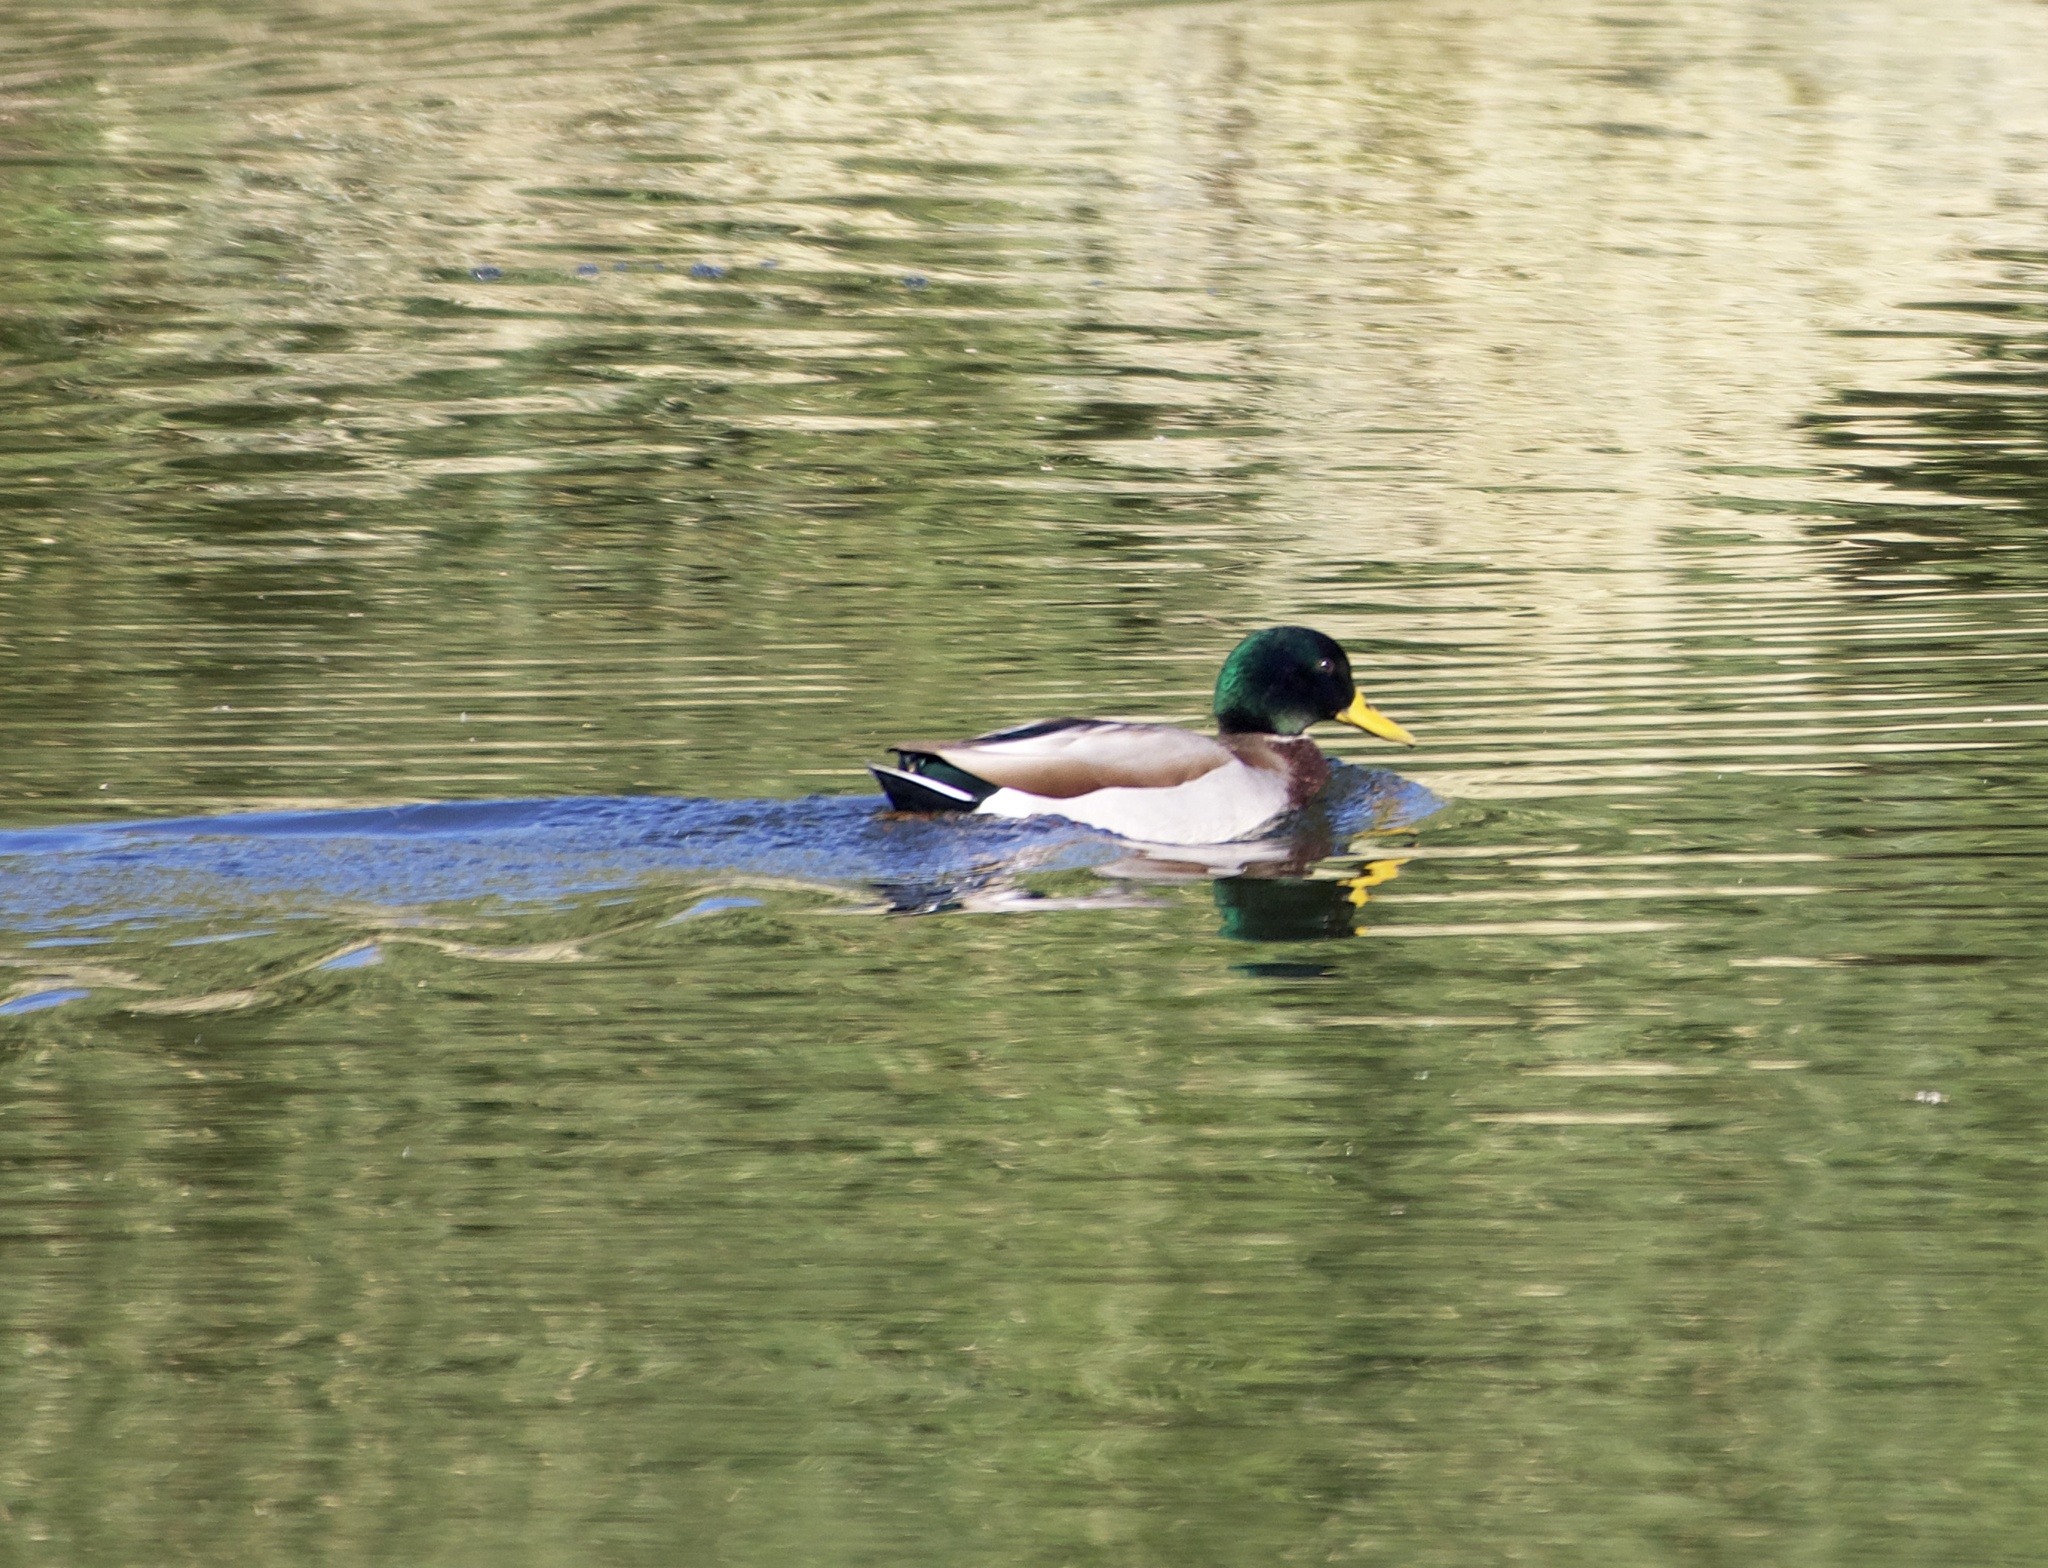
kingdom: Animalia
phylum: Chordata
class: Aves
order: Anseriformes
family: Anatidae
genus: Anas
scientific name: Anas platyrhynchos
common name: Mallard
